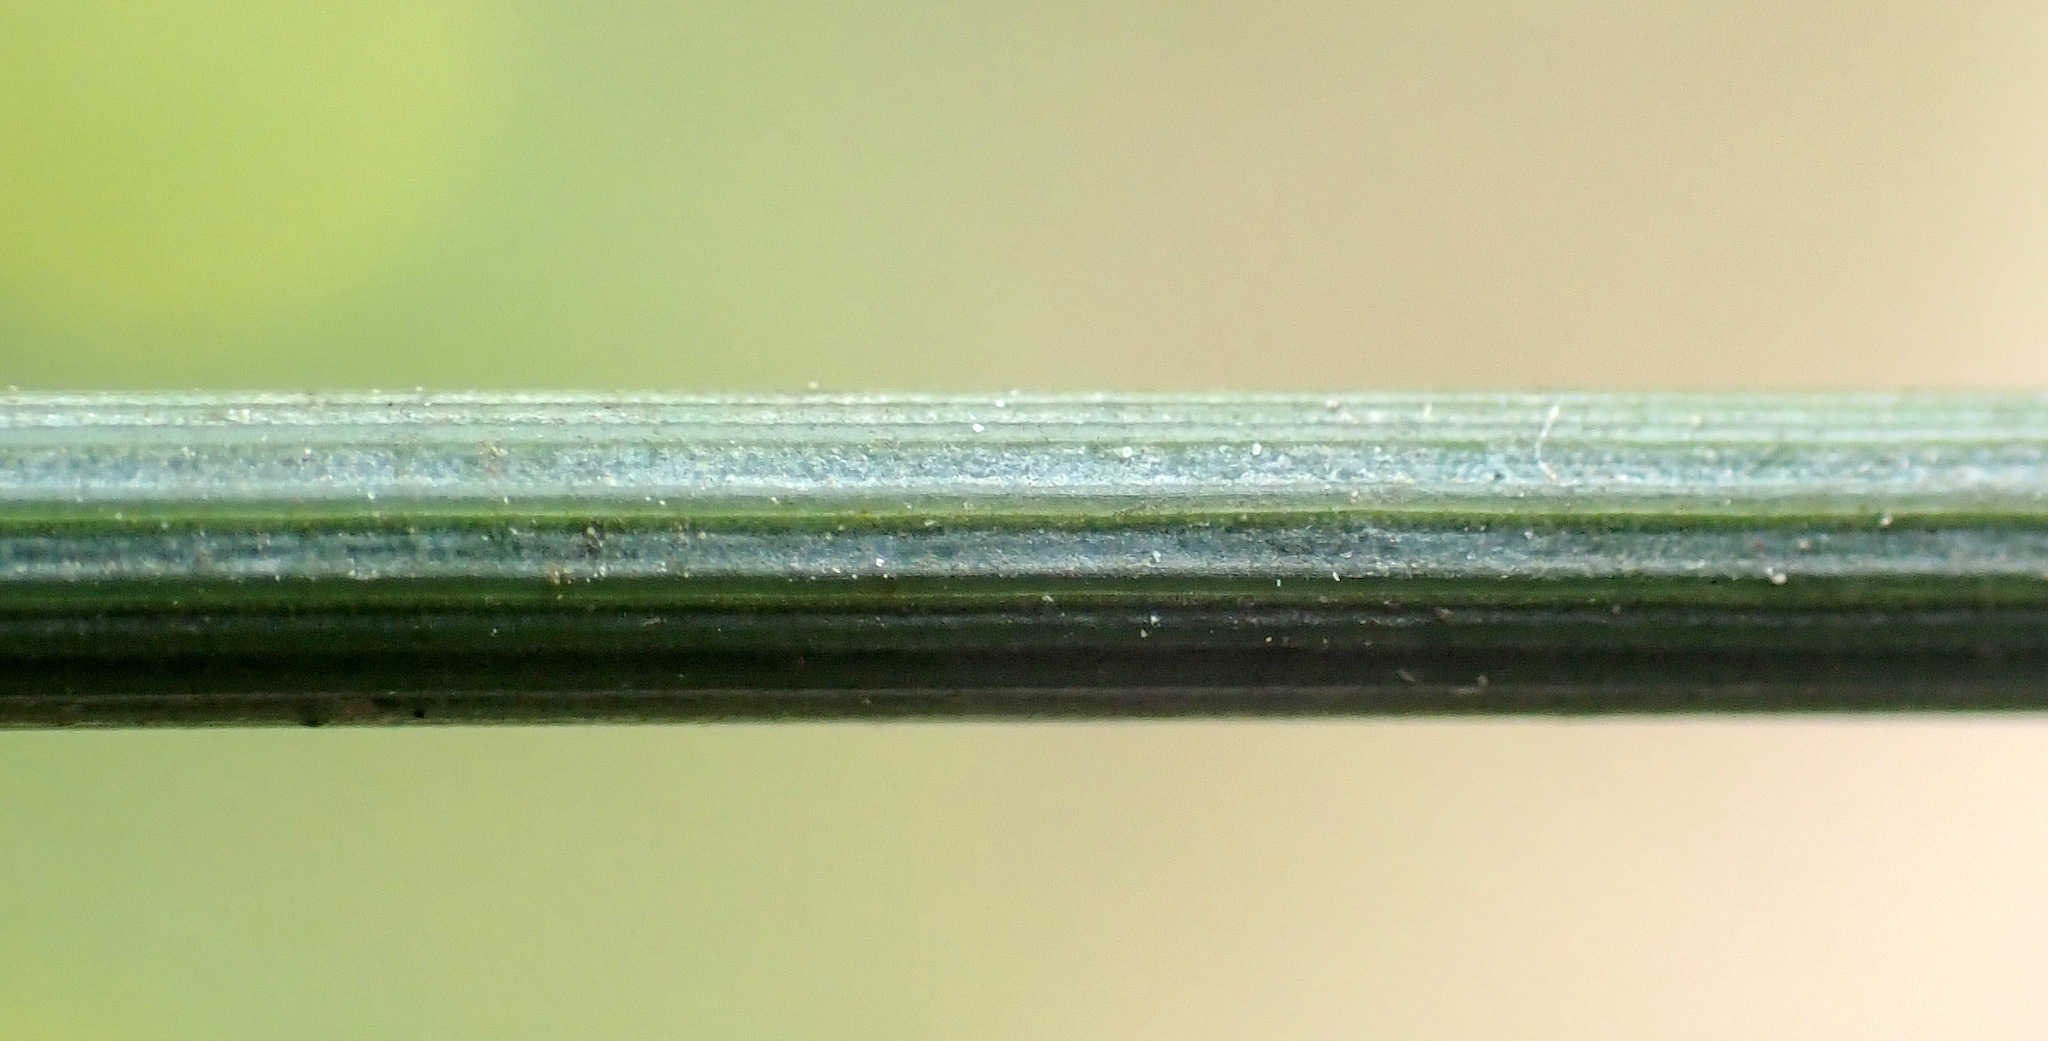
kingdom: Plantae
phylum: Tracheophyta
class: Liliopsida
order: Poales
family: Juncaceae
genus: Juncus
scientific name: Juncus inflexus
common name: Hard rush
